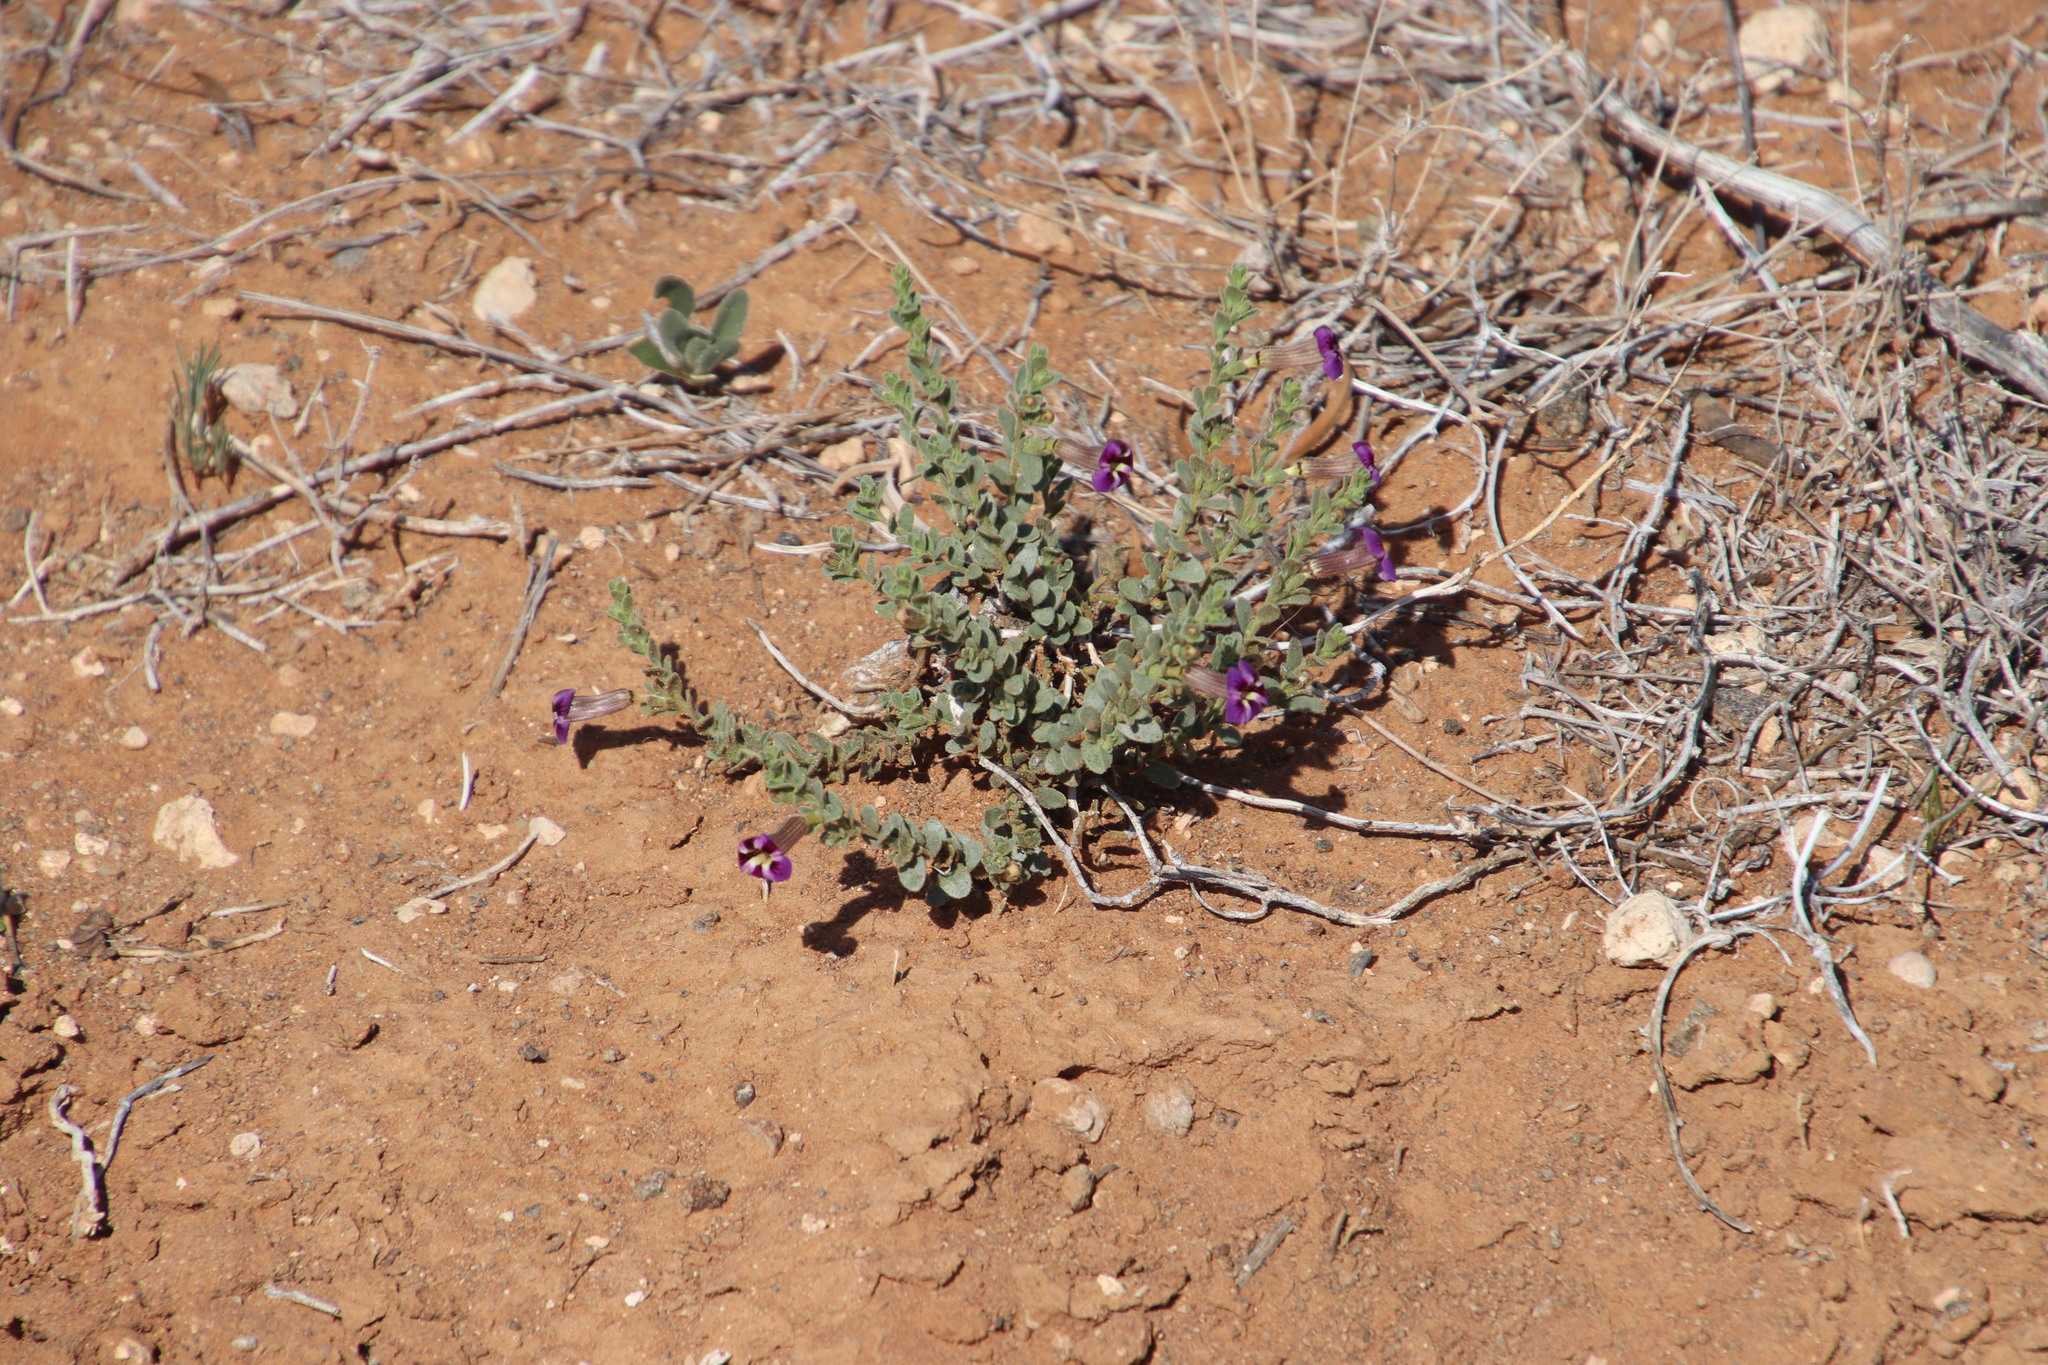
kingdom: Plantae
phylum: Tracheophyta
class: Magnoliopsida
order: Lamiales
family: Scrophulariaceae
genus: Peliostomum
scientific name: Peliostomum virgatum
